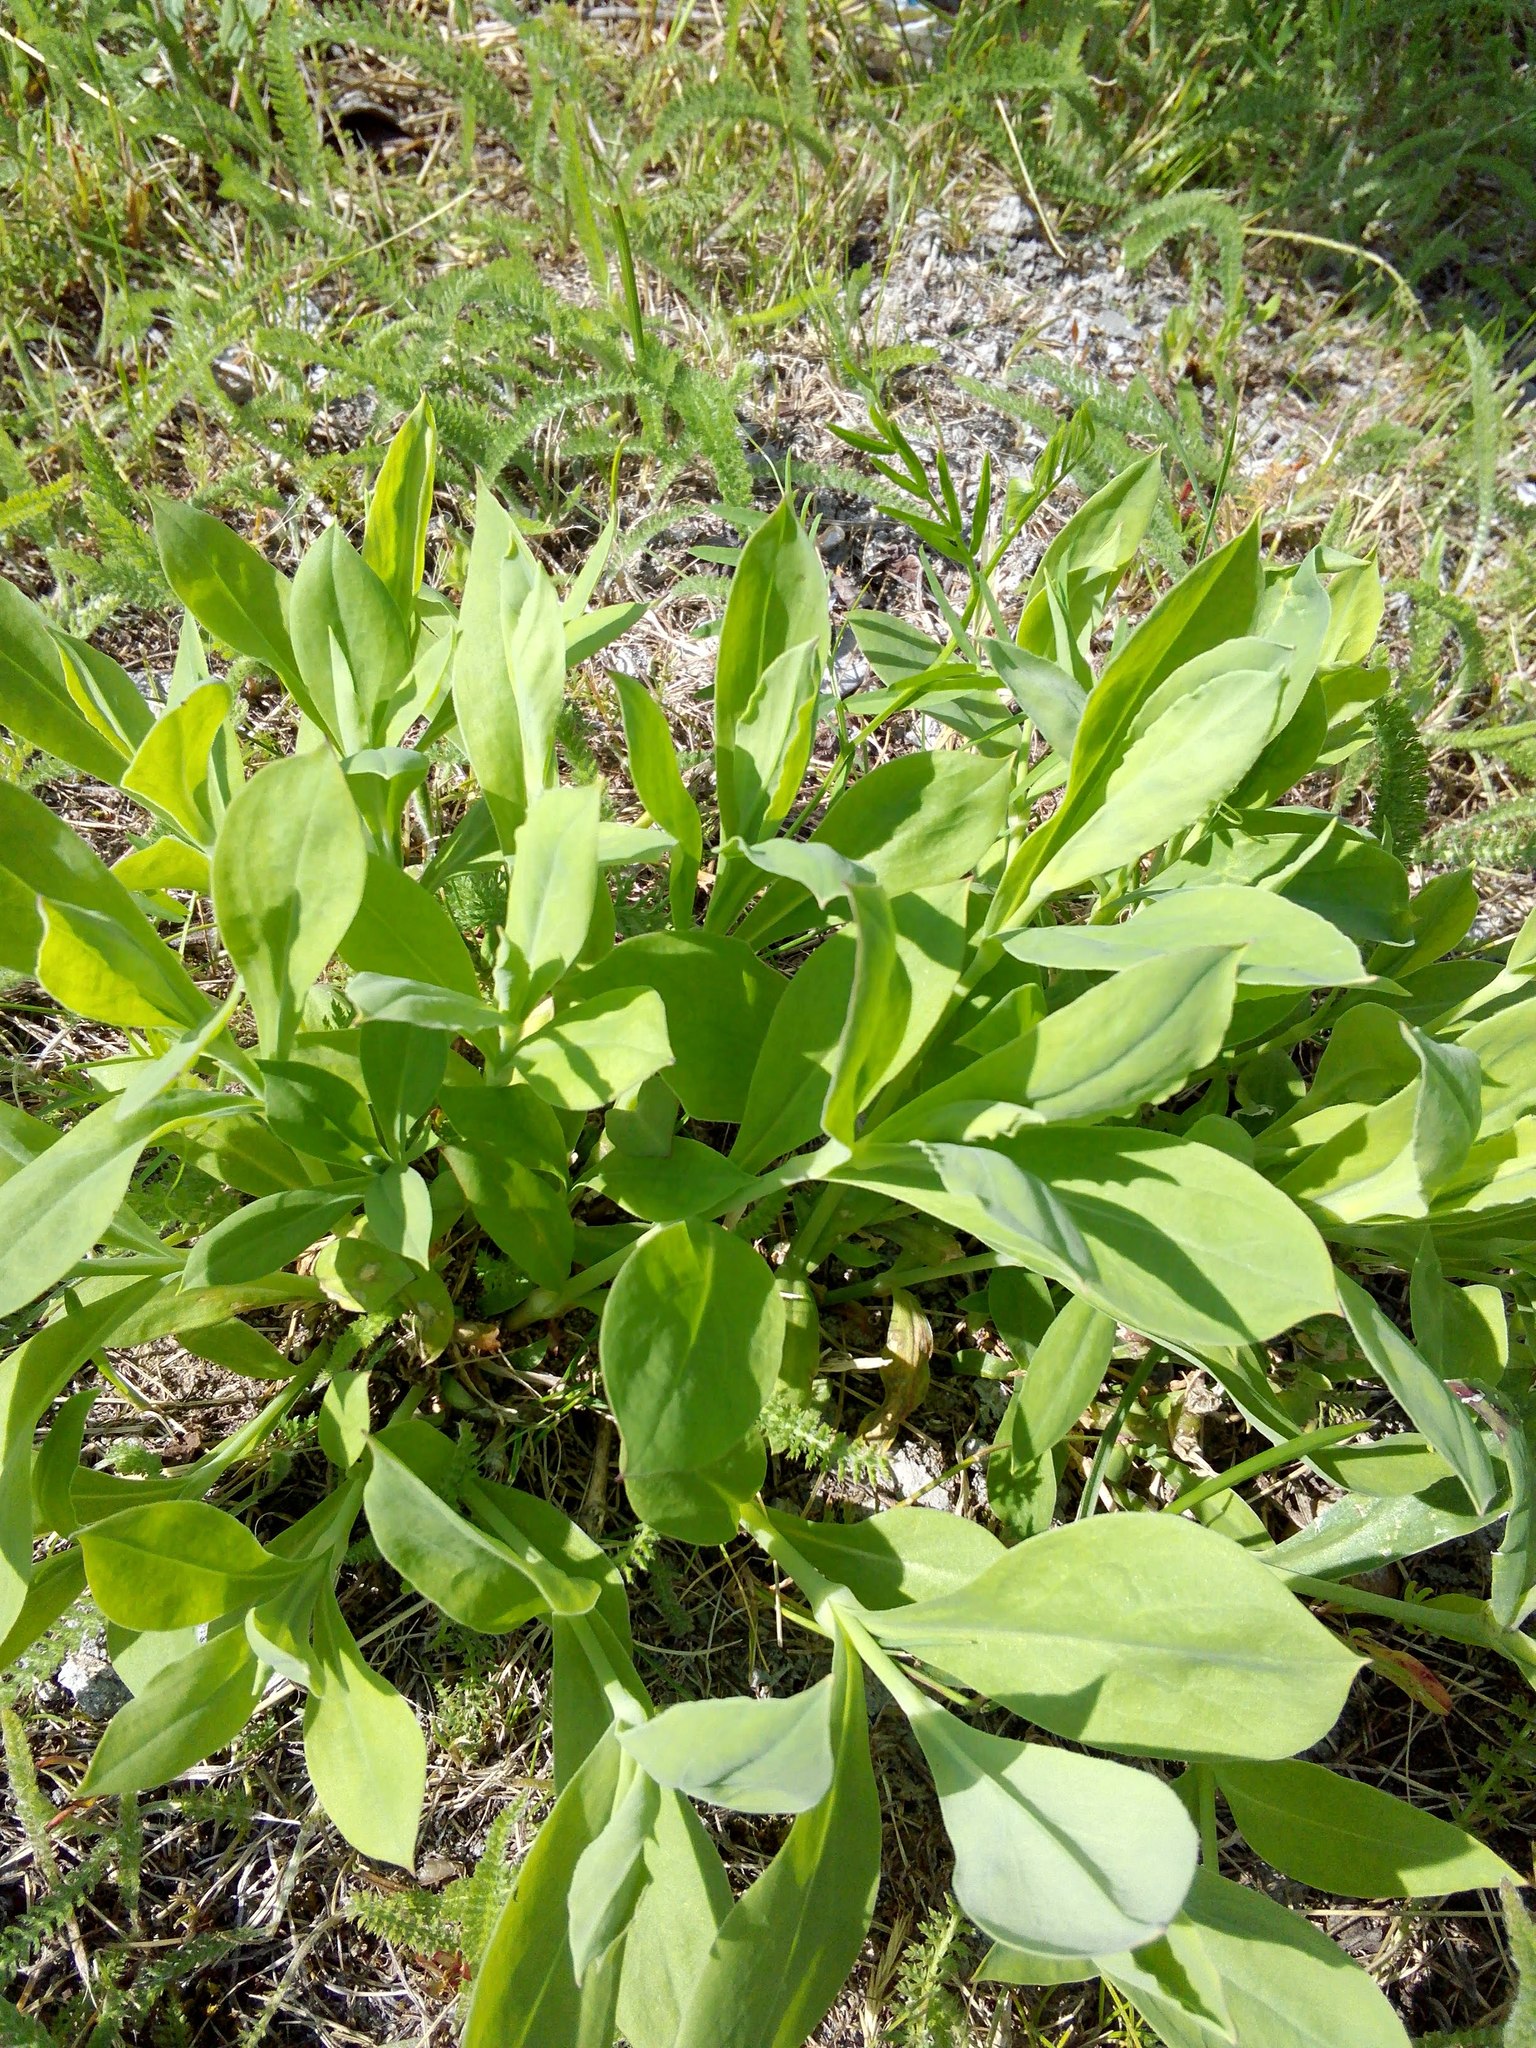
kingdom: Plantae
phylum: Tracheophyta
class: Magnoliopsida
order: Caryophyllales
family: Caryophyllaceae
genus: Silene
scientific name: Silene vulgaris
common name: Bladder campion
